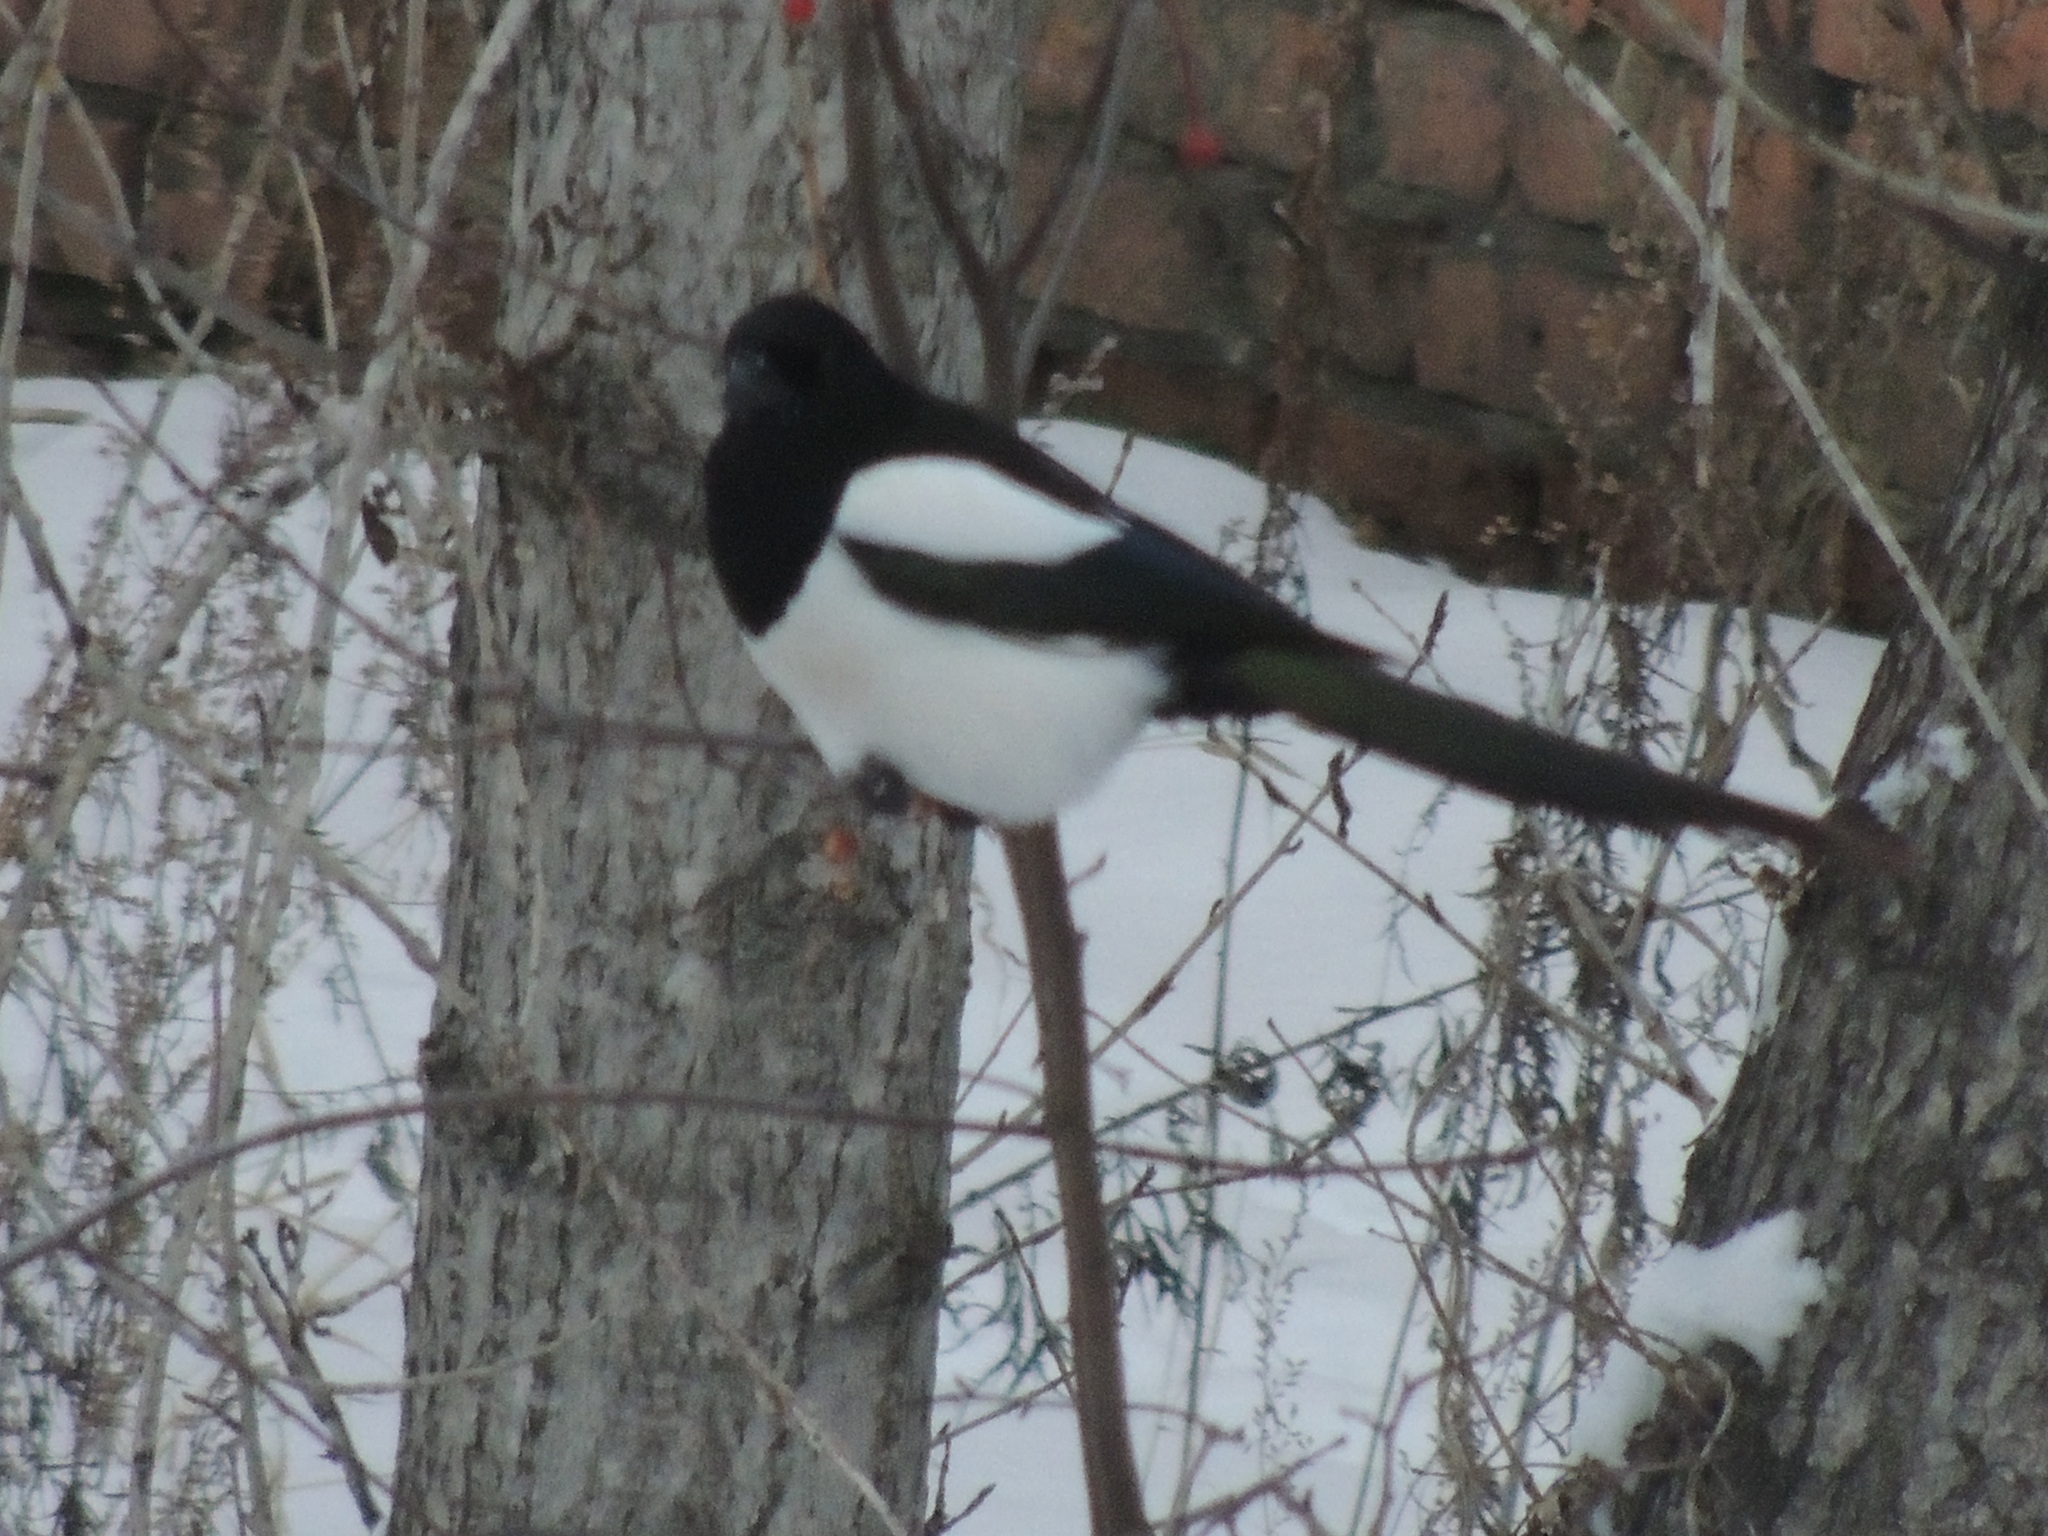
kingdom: Animalia
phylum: Chordata
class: Aves
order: Passeriformes
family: Corvidae
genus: Pica
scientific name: Pica pica
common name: Eurasian magpie
